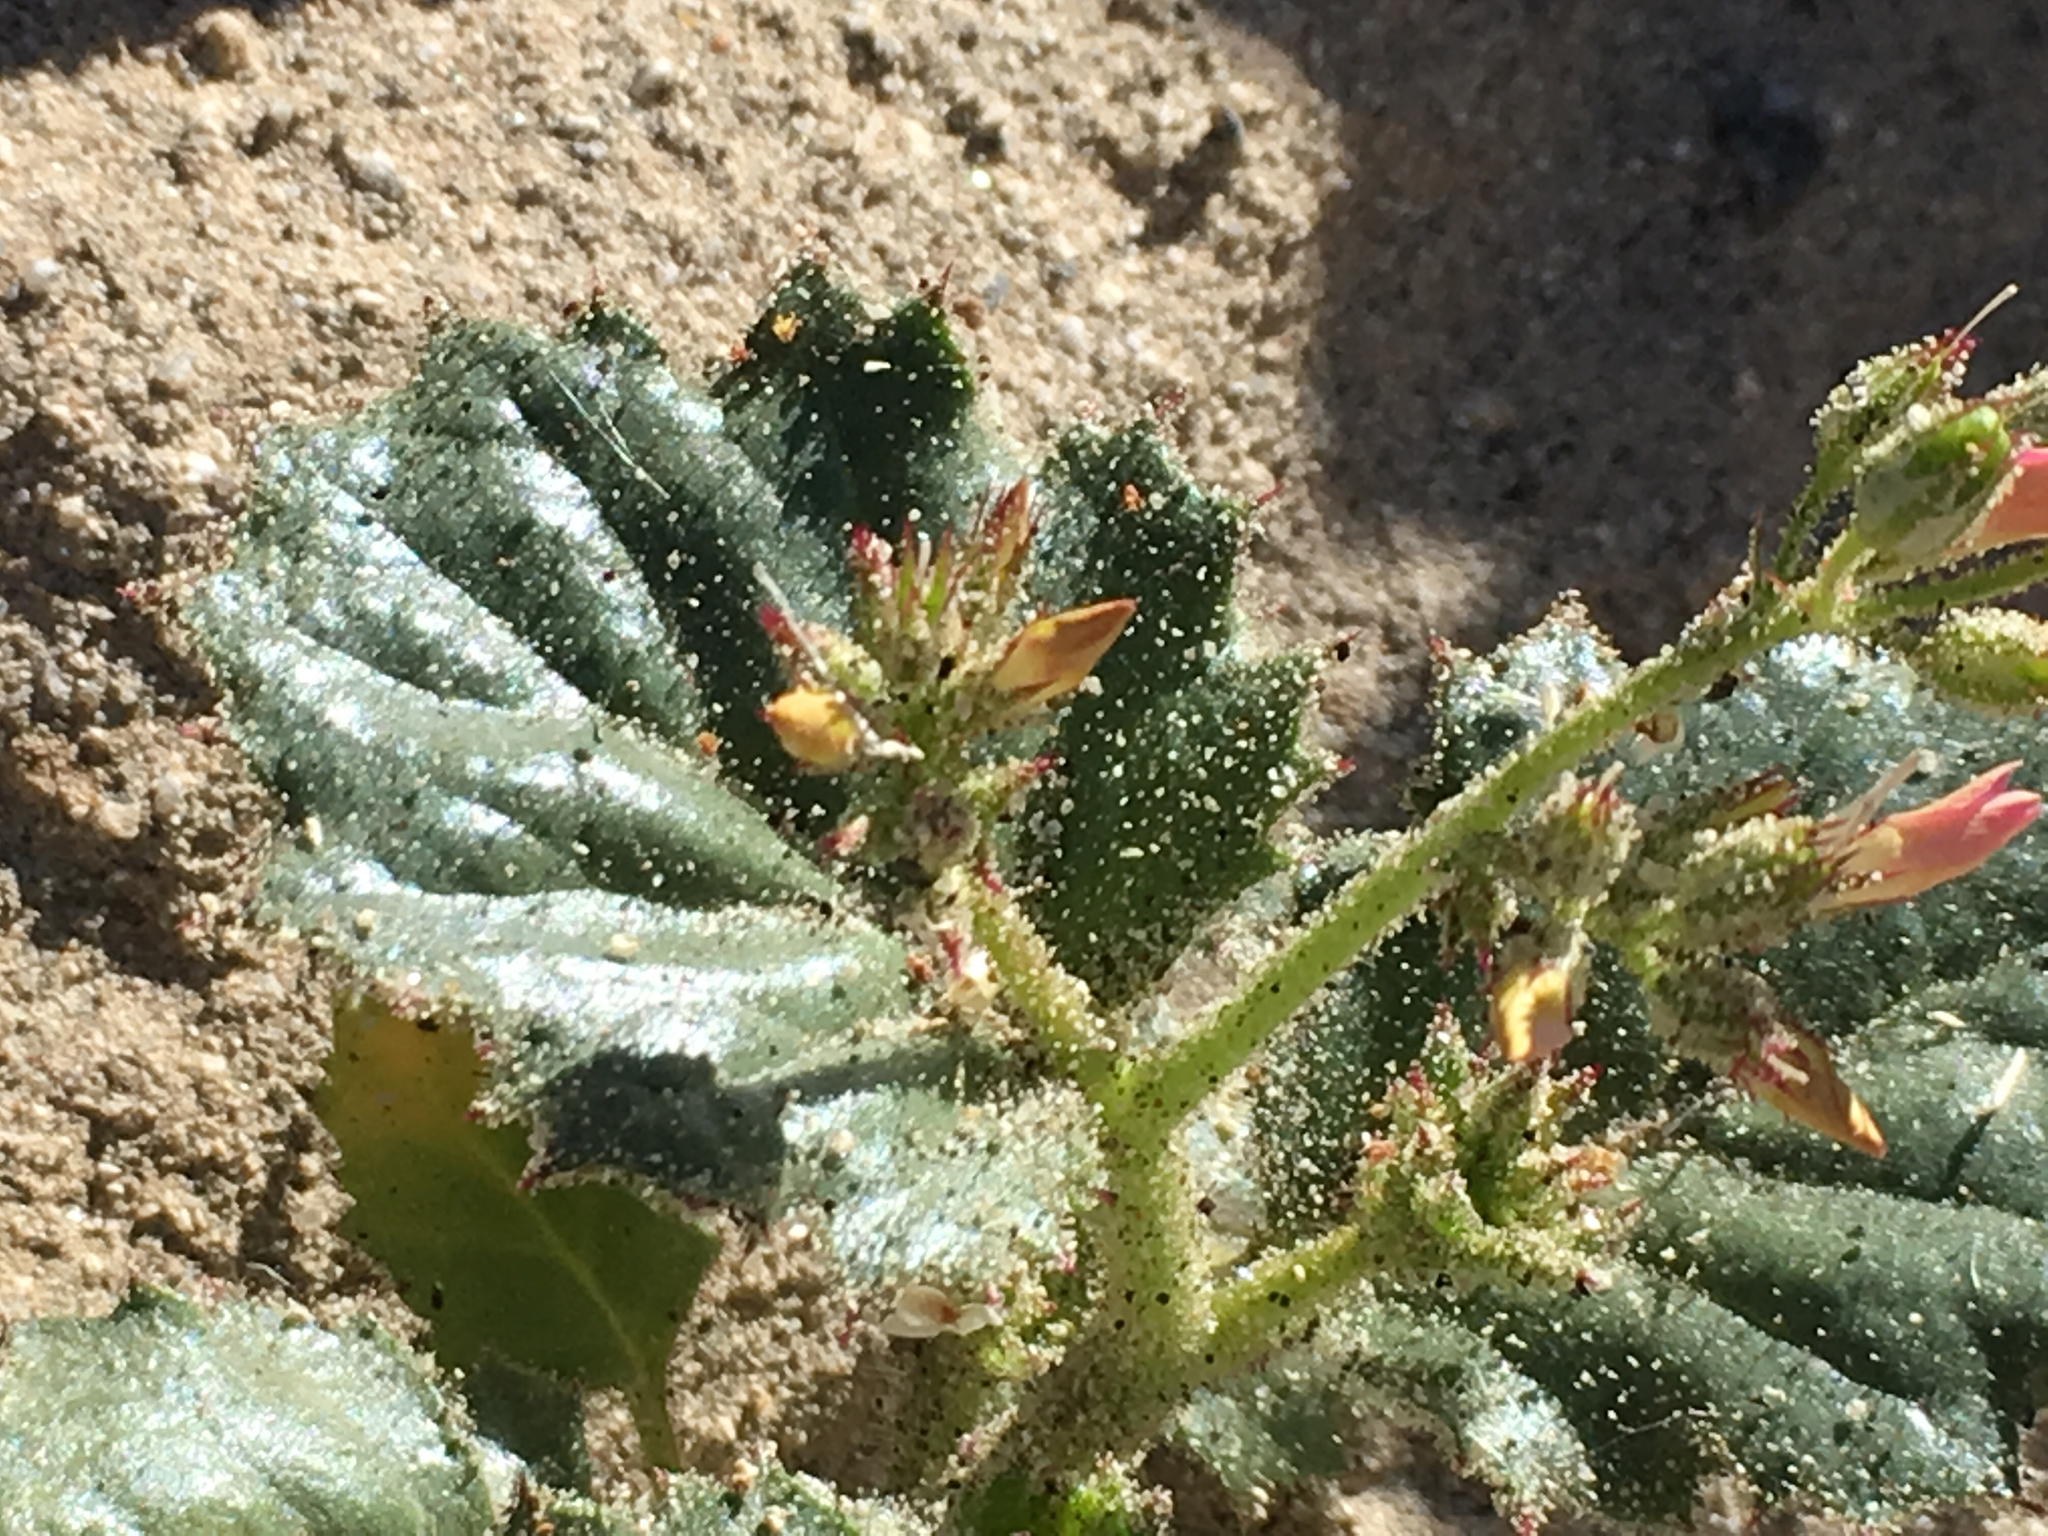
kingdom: Plantae
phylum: Tracheophyta
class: Magnoliopsida
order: Ericales
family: Polemoniaceae
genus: Aliciella
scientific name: Aliciella latifolia
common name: Broad-leaf gilia
